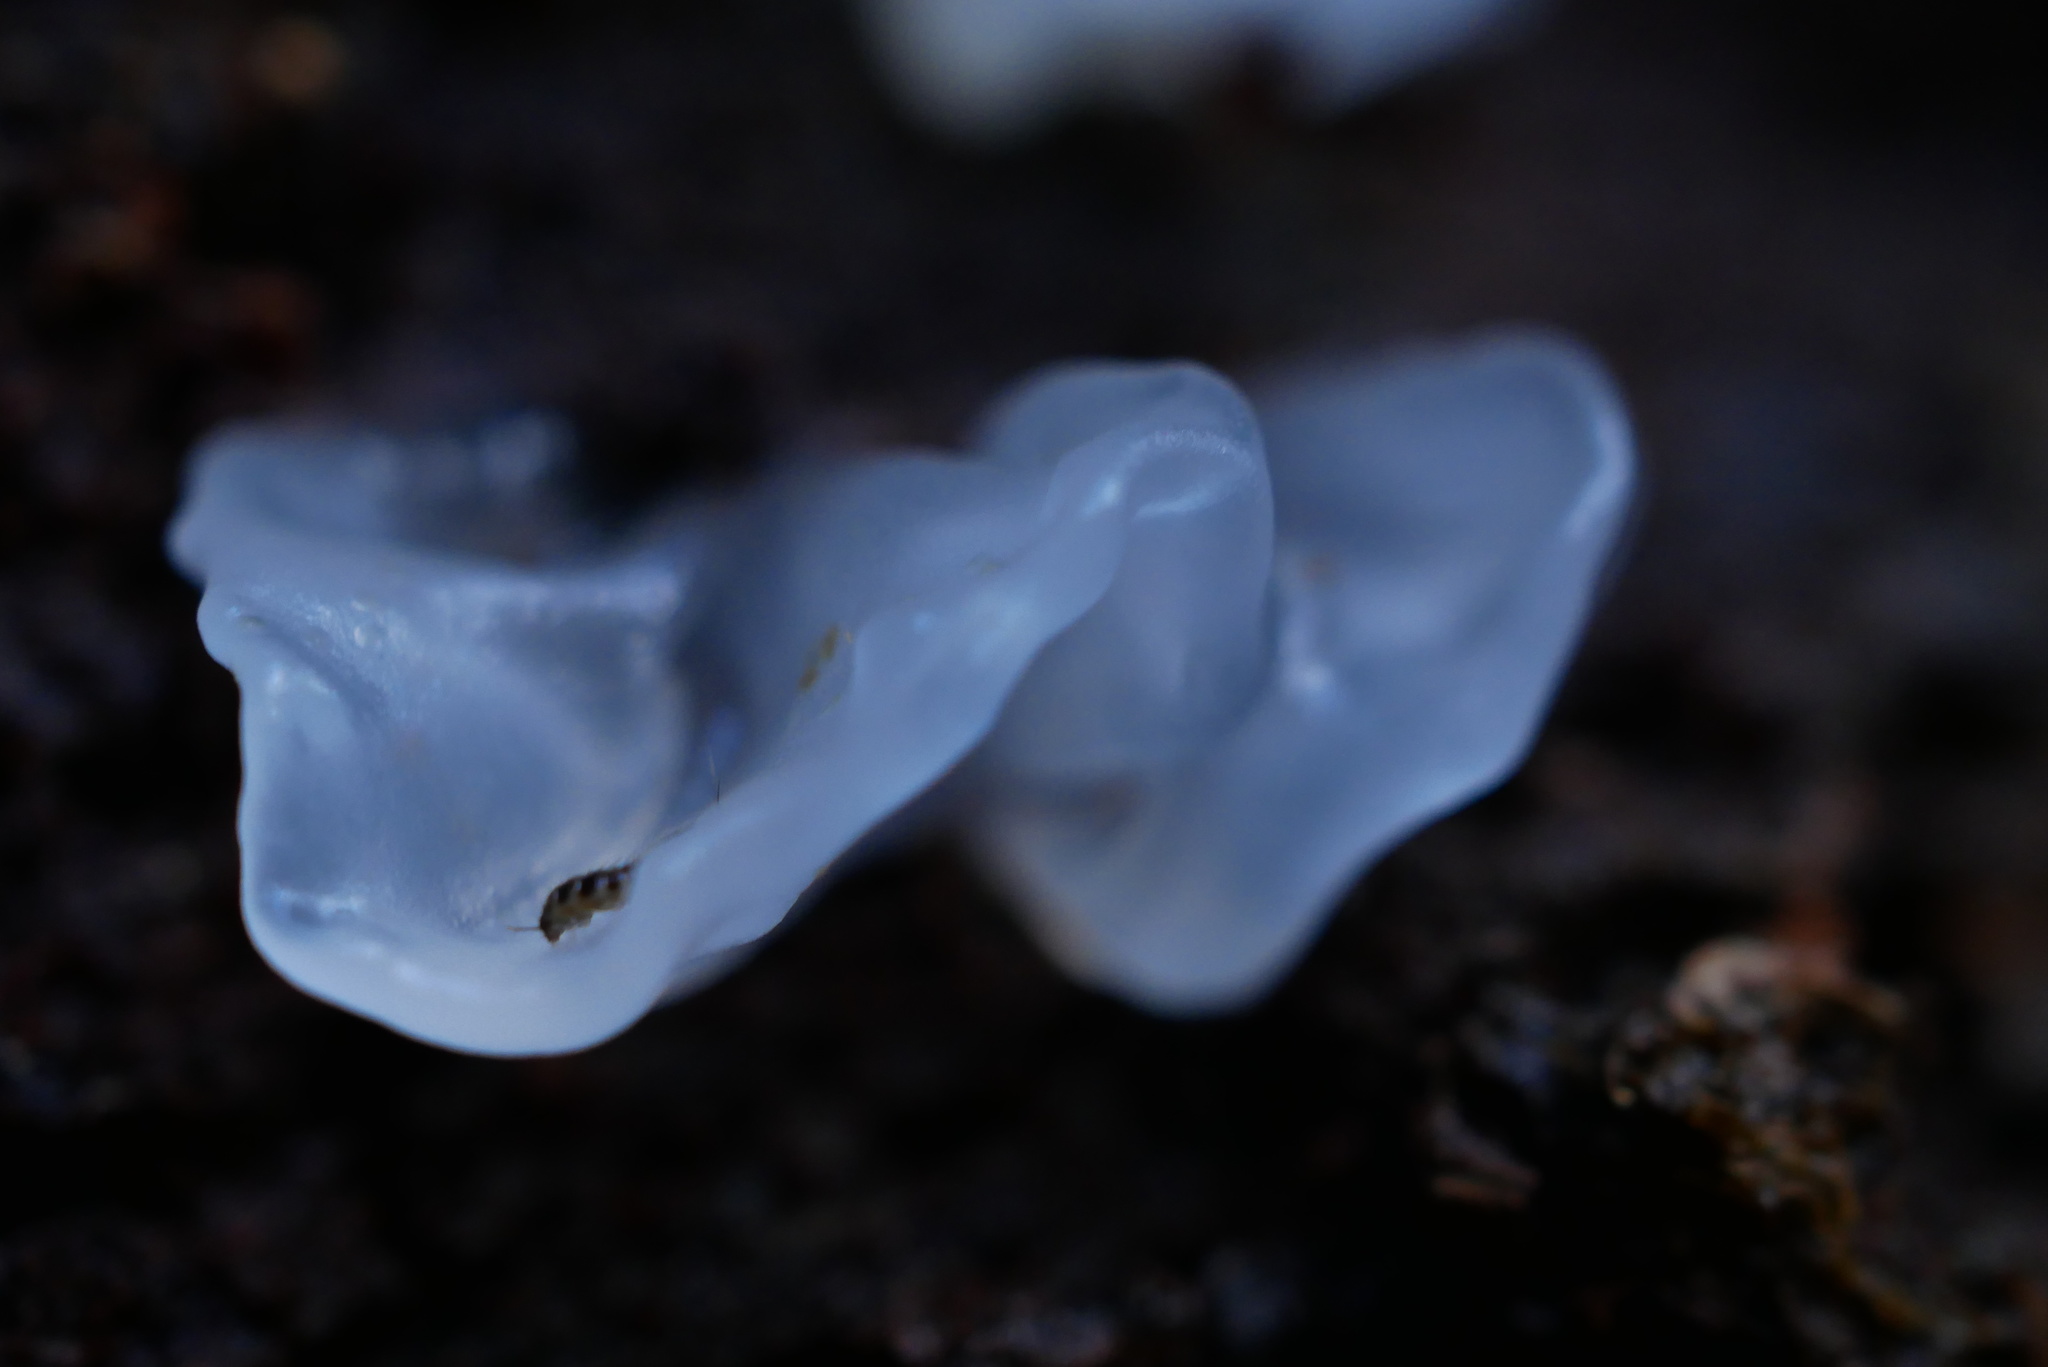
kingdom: Fungi
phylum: Basidiomycota
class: Tremellomycetes
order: Tremellales
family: Tremellaceae
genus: Tremella
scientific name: Tremella fuciformis
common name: Snow fungus
